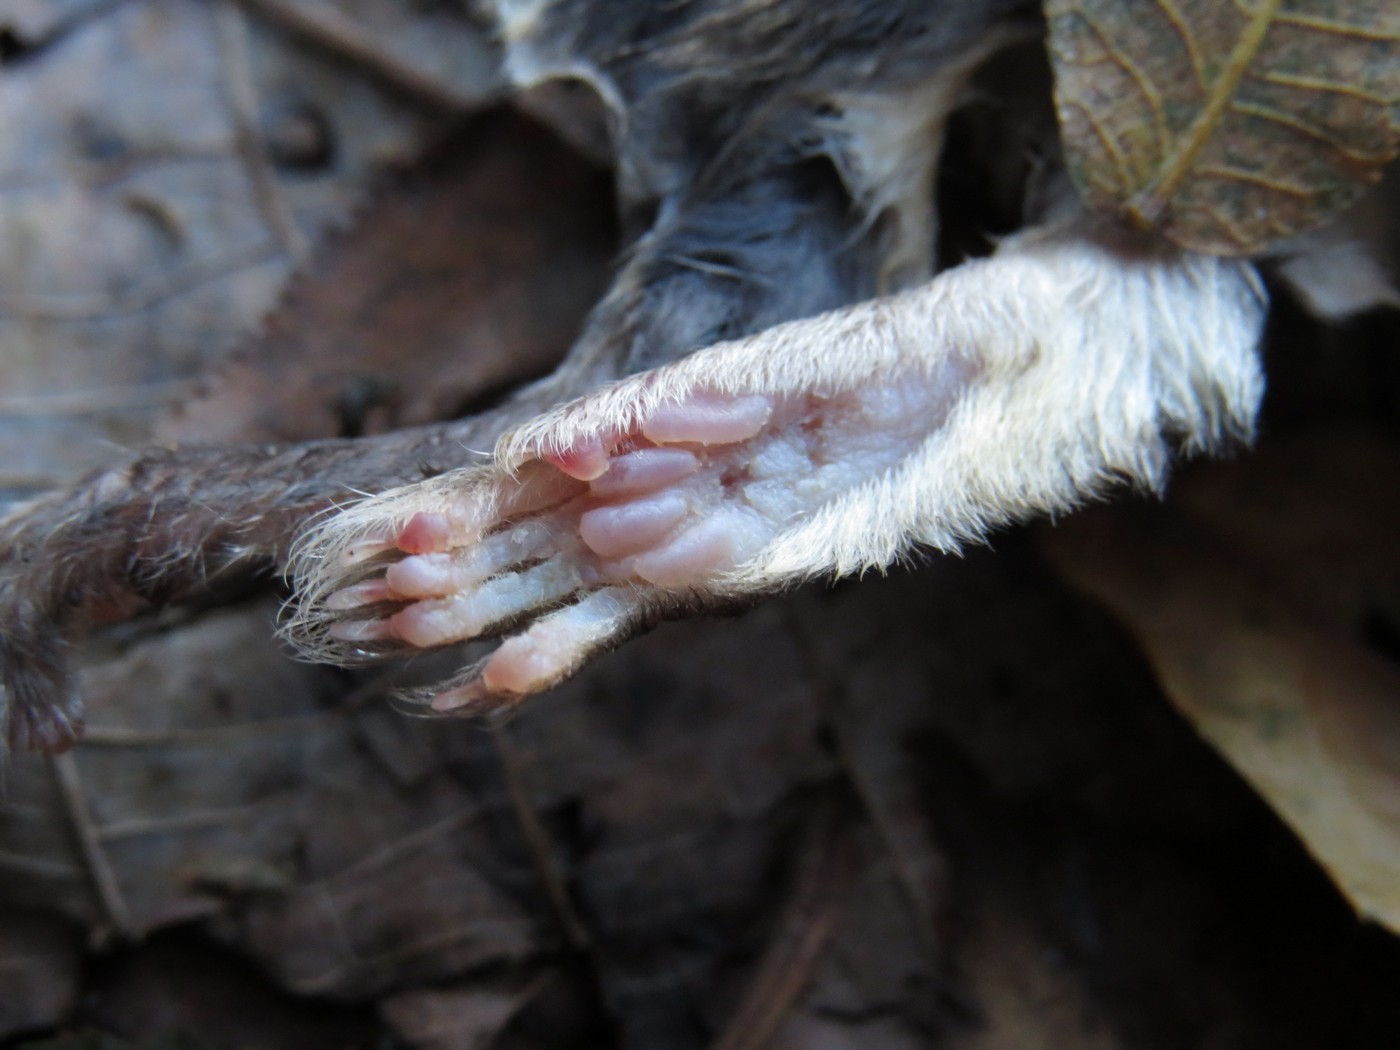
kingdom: Animalia
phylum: Chordata
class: Mammalia
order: Rodentia
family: Sciuridae
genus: Glaucomys
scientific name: Glaucomys volans
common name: Southern flying squirrel
